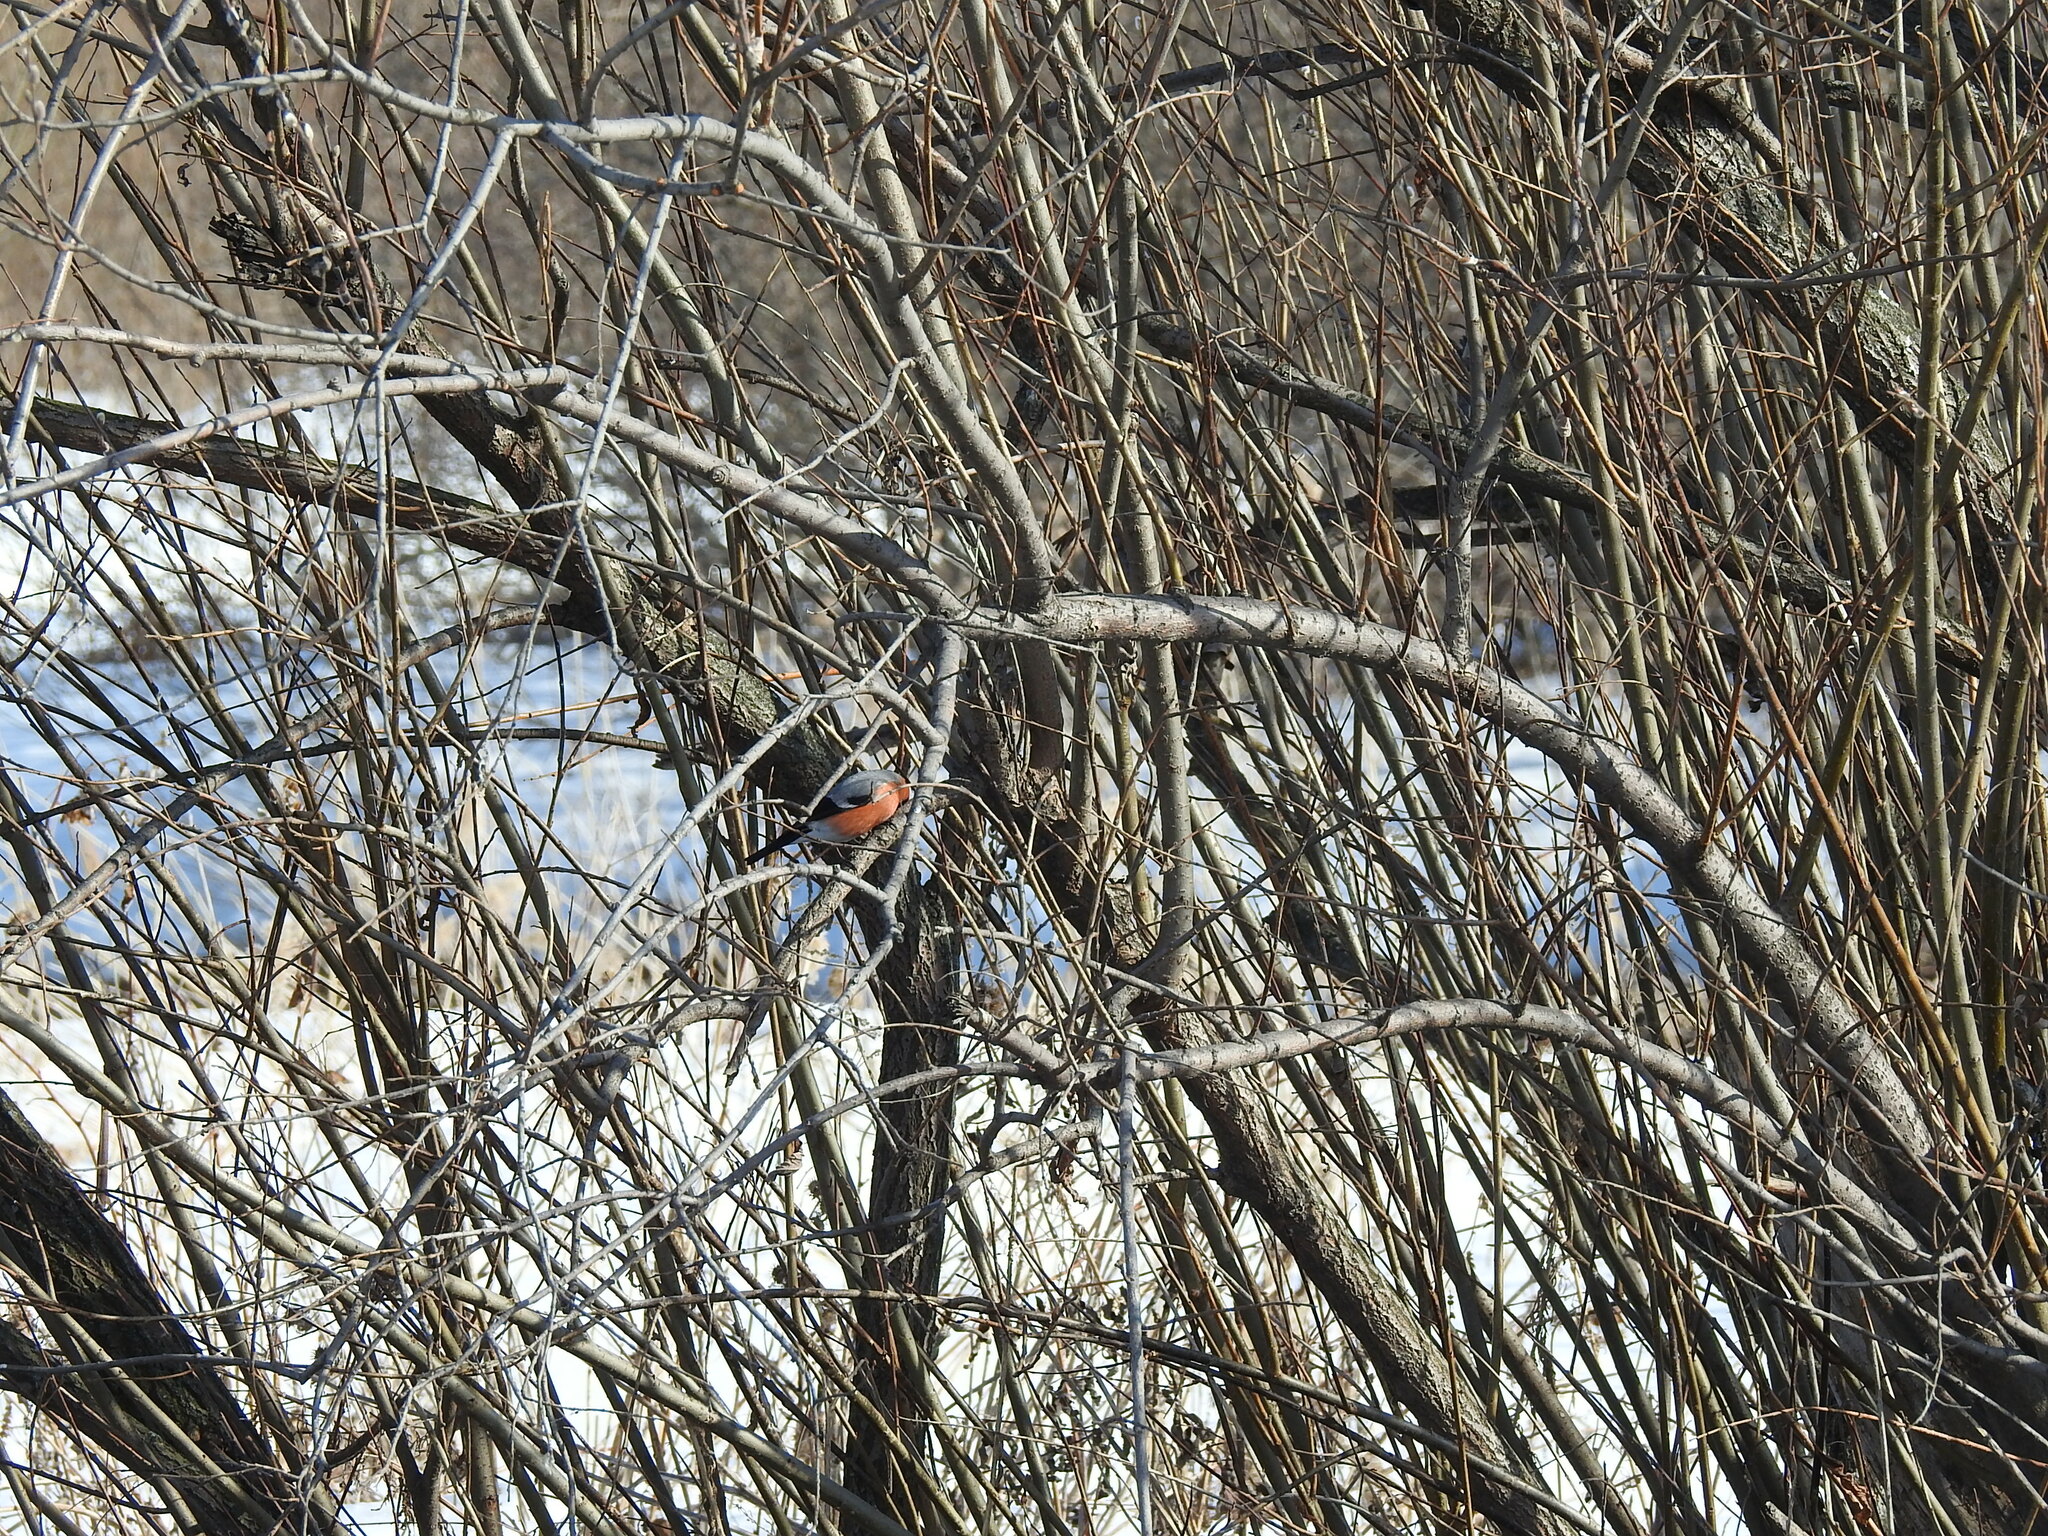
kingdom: Animalia
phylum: Chordata
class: Aves
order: Passeriformes
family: Fringillidae
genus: Pyrrhula
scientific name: Pyrrhula pyrrhula
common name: Eurasian bullfinch
